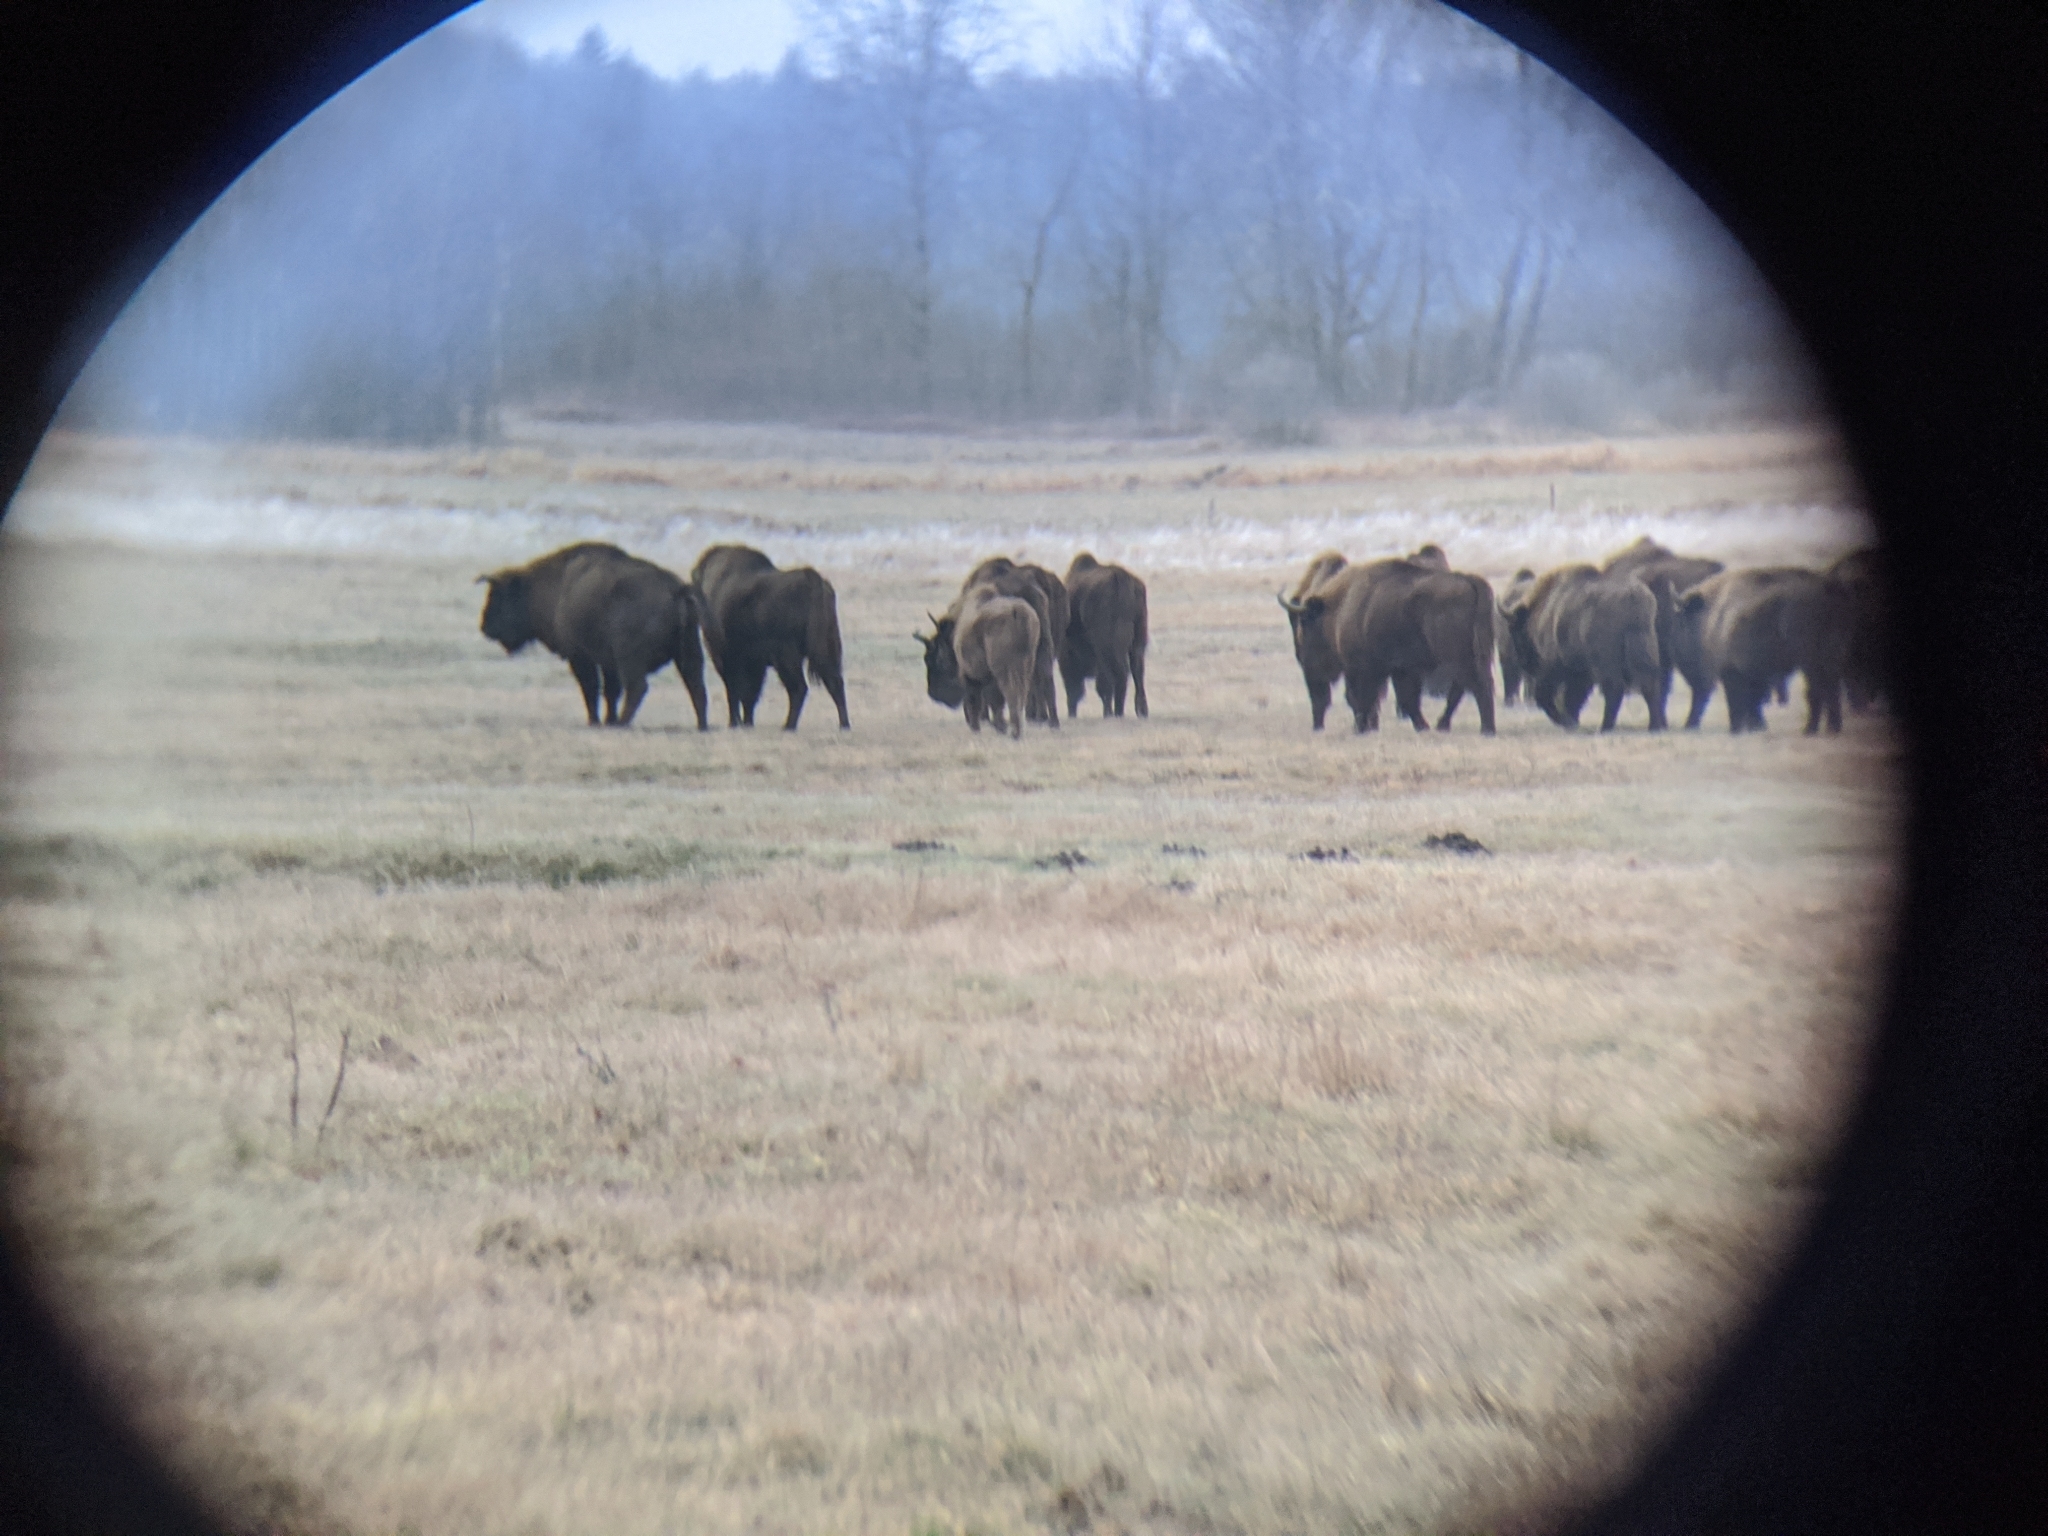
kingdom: Animalia
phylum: Chordata
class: Mammalia
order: Artiodactyla
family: Bovidae
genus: Bison
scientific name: Bison bonasus
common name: European bison
